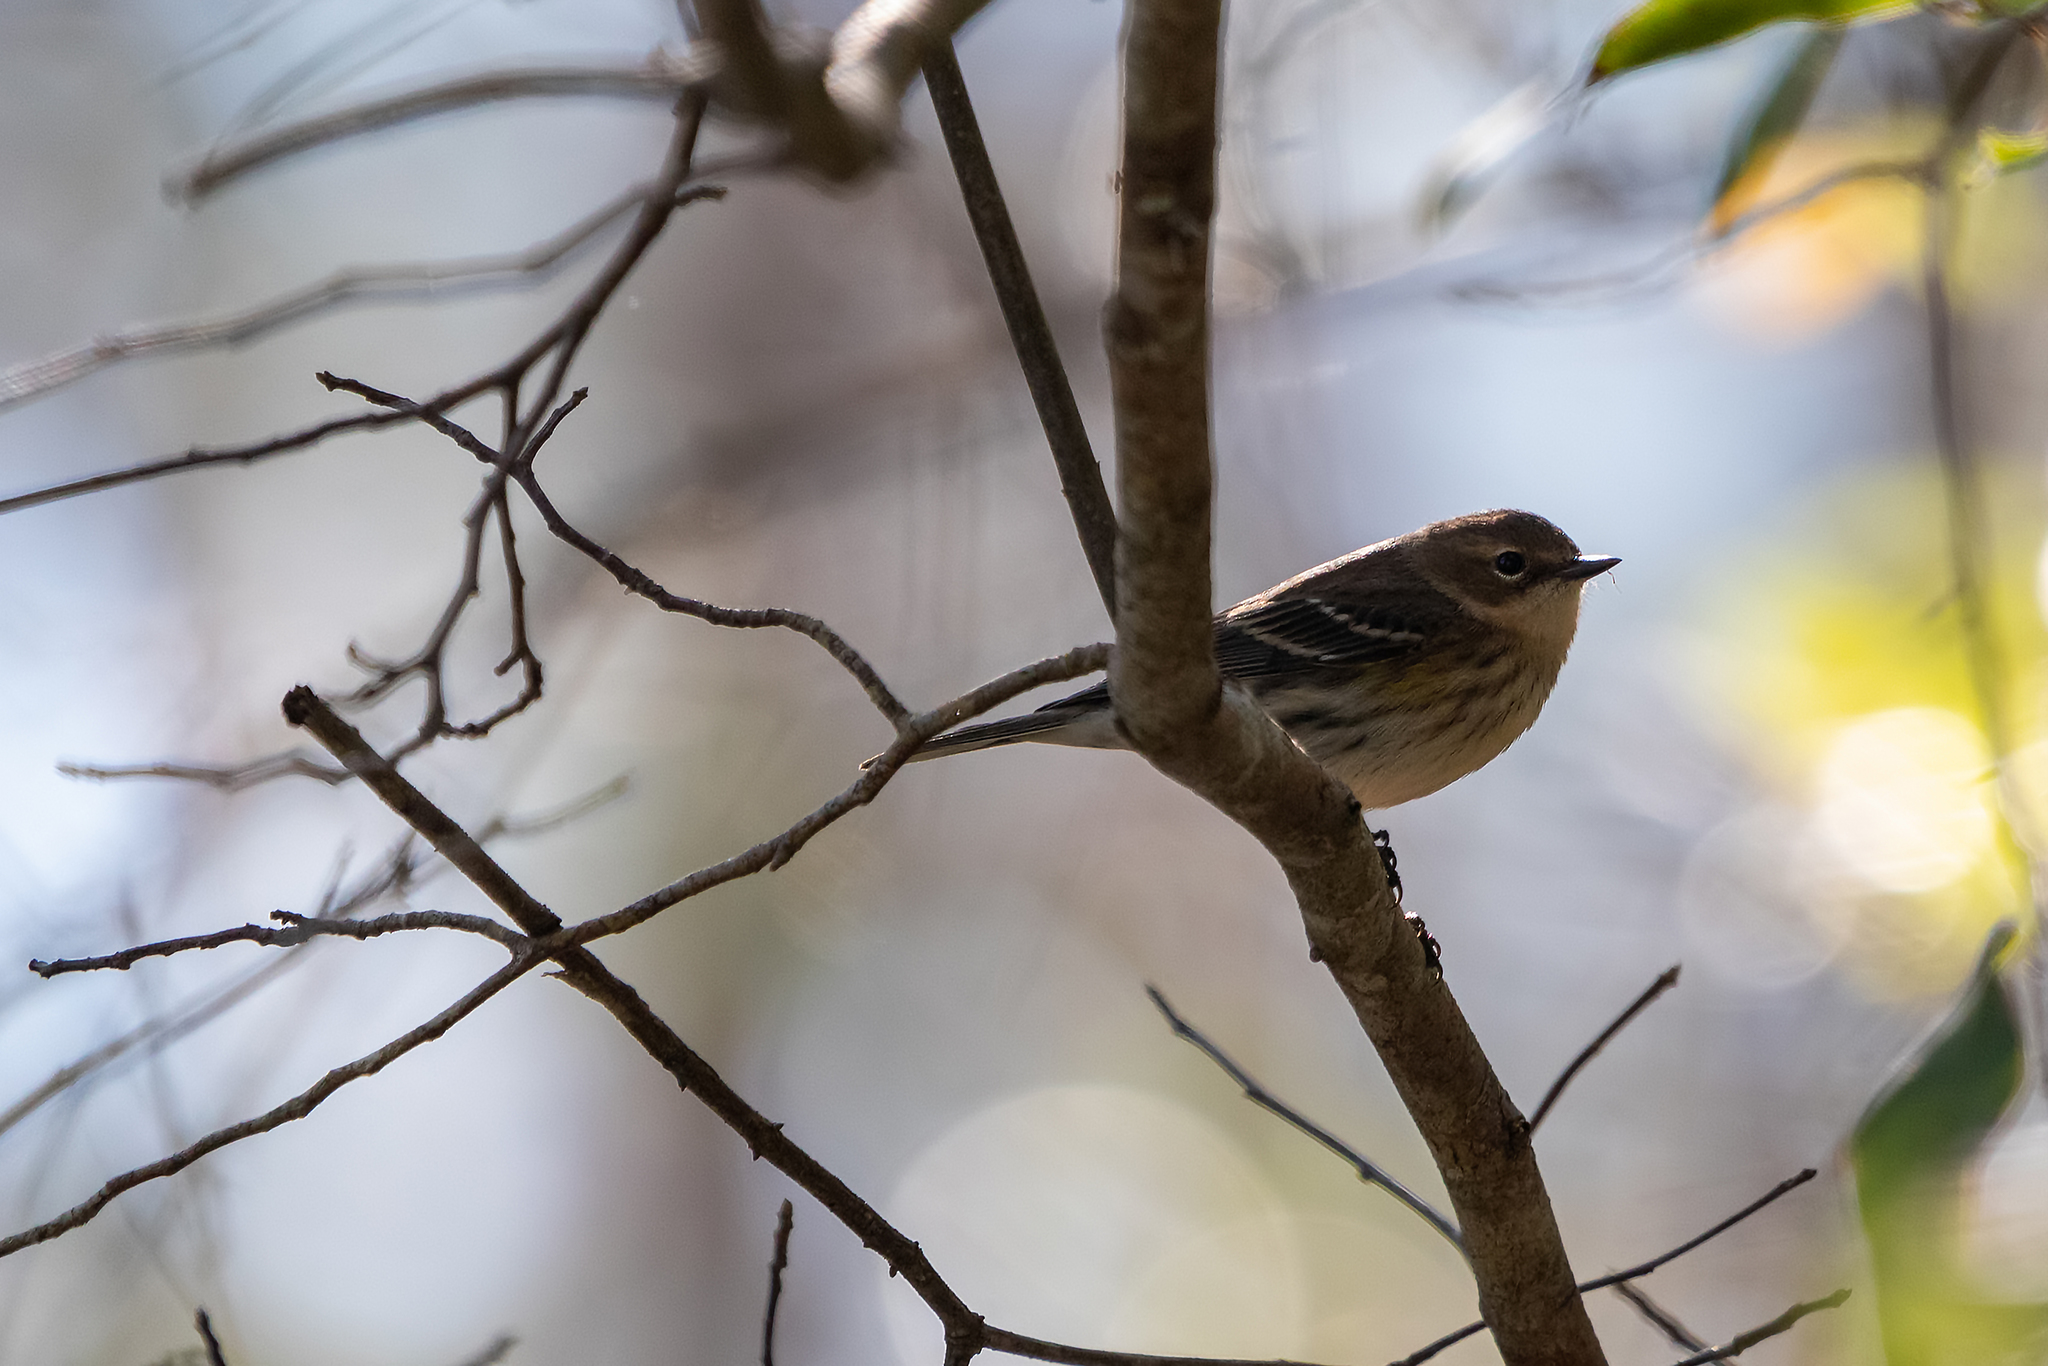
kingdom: Animalia
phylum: Chordata
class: Aves
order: Passeriformes
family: Parulidae
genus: Setophaga
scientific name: Setophaga coronata
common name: Myrtle warbler
